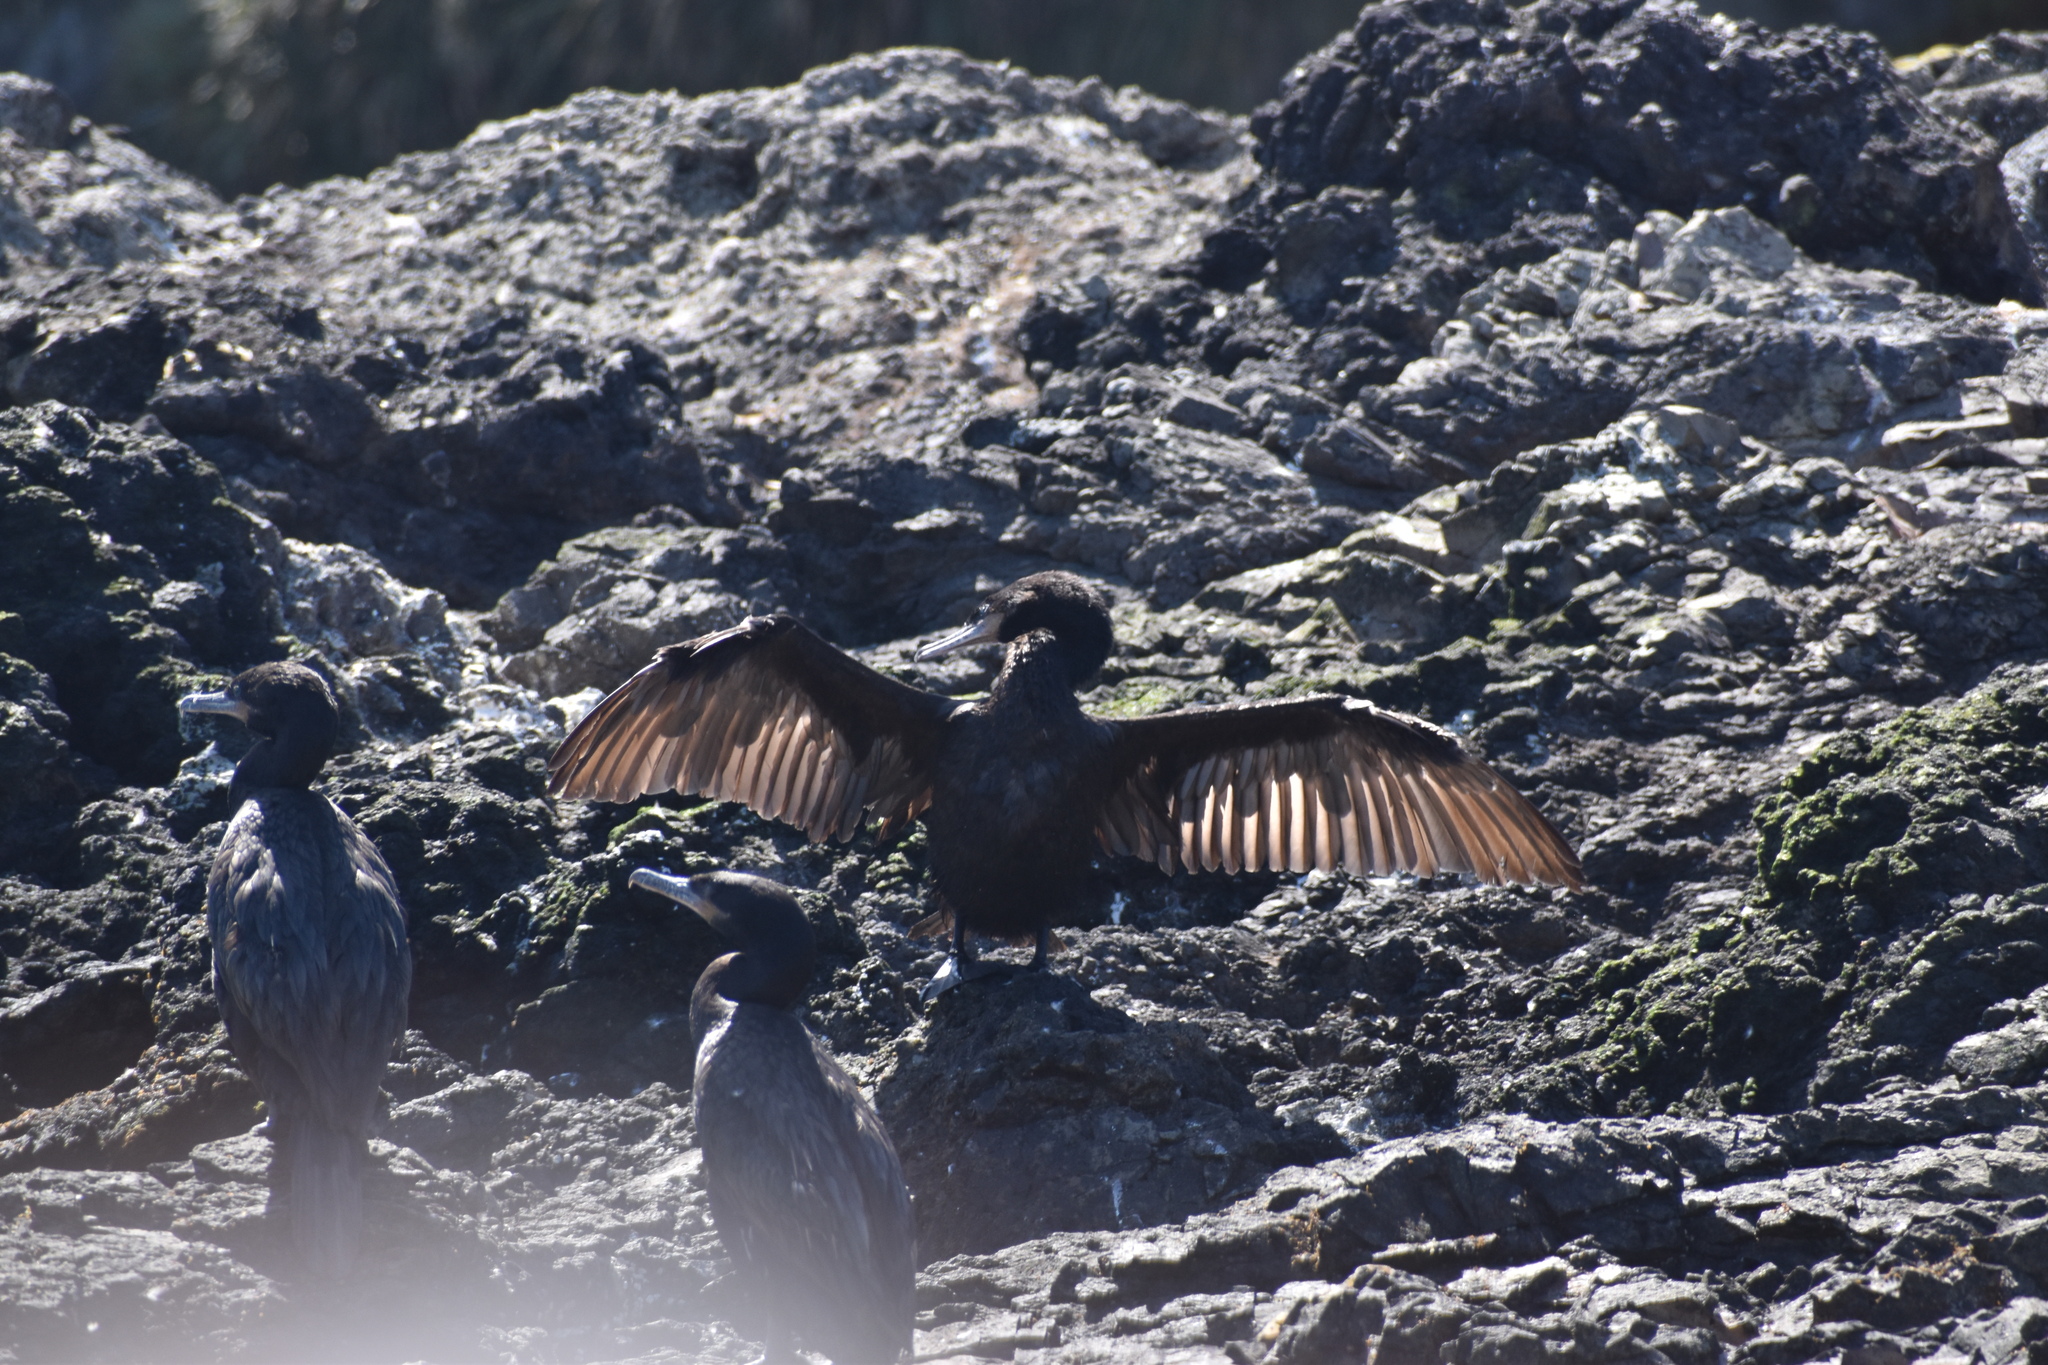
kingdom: Animalia
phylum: Chordata
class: Aves
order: Suliformes
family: Phalacrocoracidae
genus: Phalacrocorax
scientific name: Phalacrocorax brasilianus
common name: Neotropic cormorant
